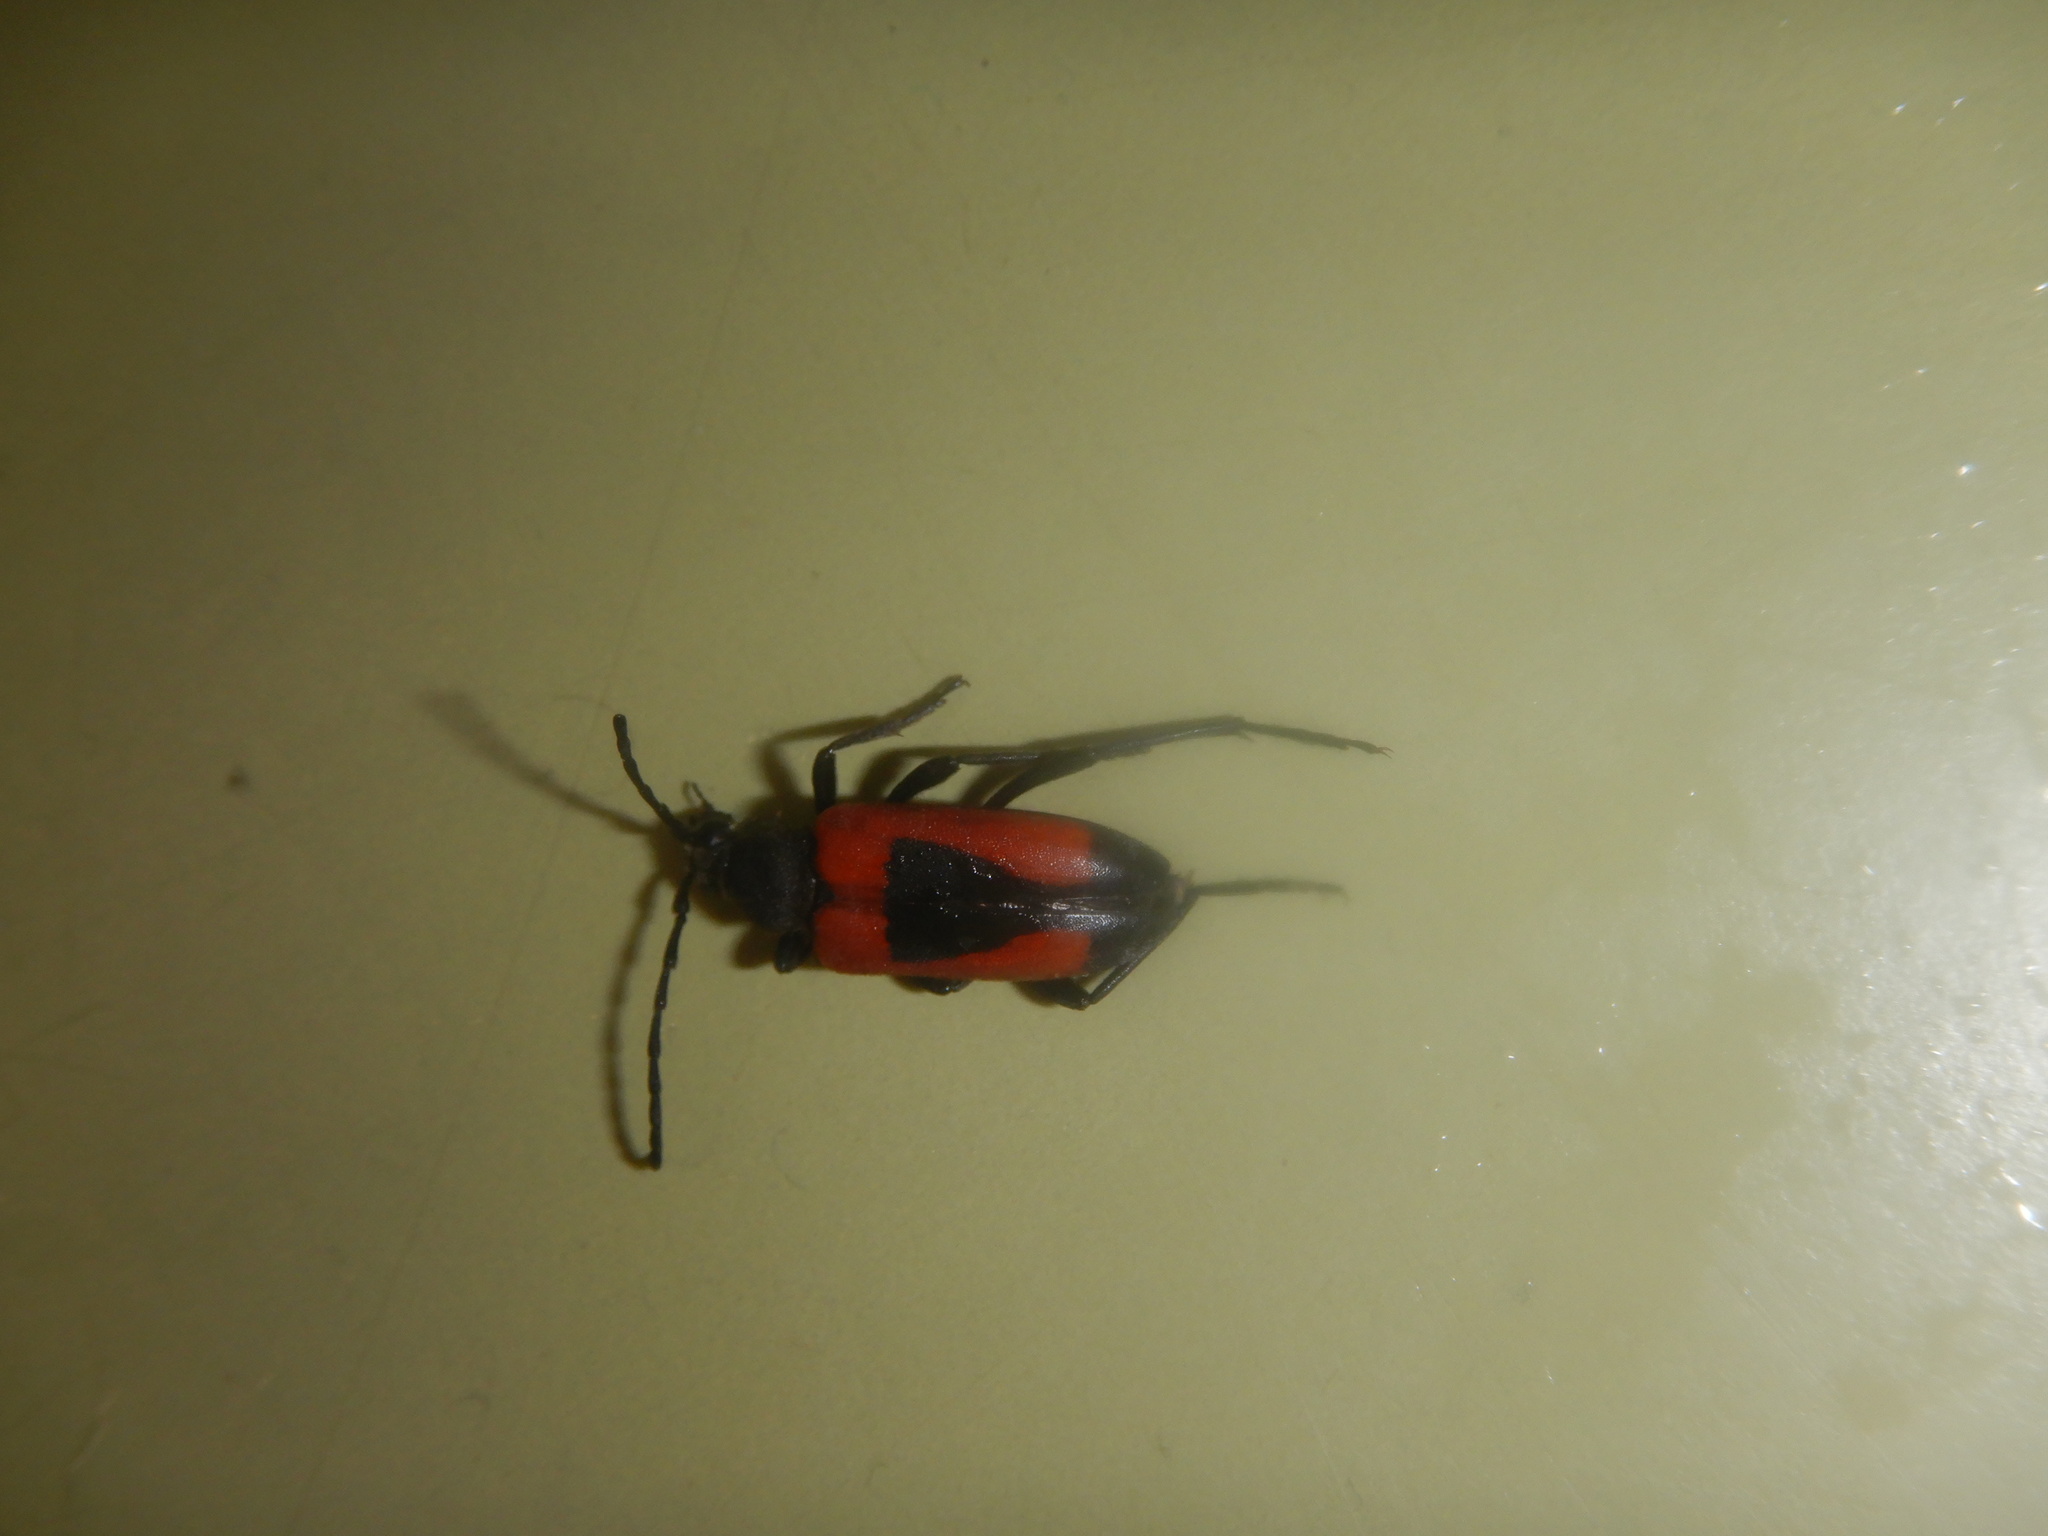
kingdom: Animalia
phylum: Arthropoda
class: Insecta
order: Coleoptera
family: Cerambycidae
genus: Stictoleptura
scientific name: Stictoleptura cordigera
